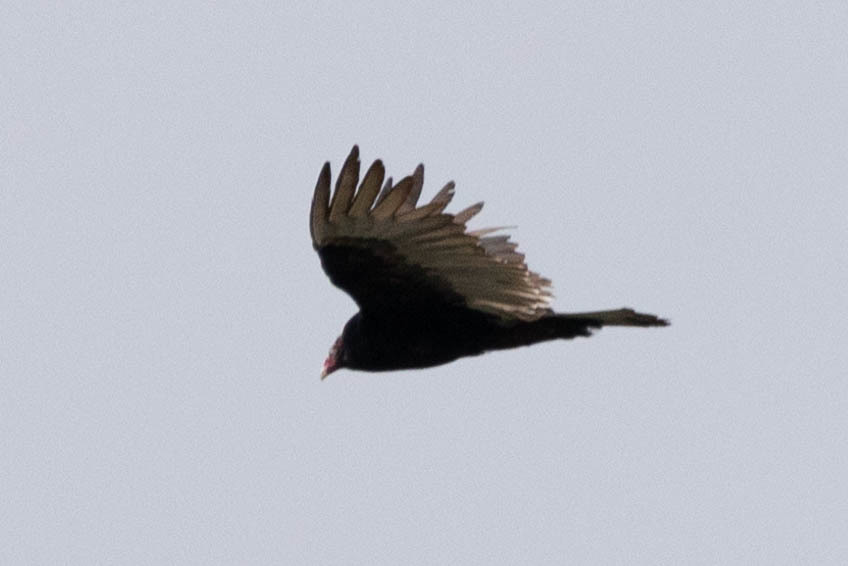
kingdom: Animalia
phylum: Chordata
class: Aves
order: Accipitriformes
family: Cathartidae
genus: Cathartes
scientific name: Cathartes aura
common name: Turkey vulture
